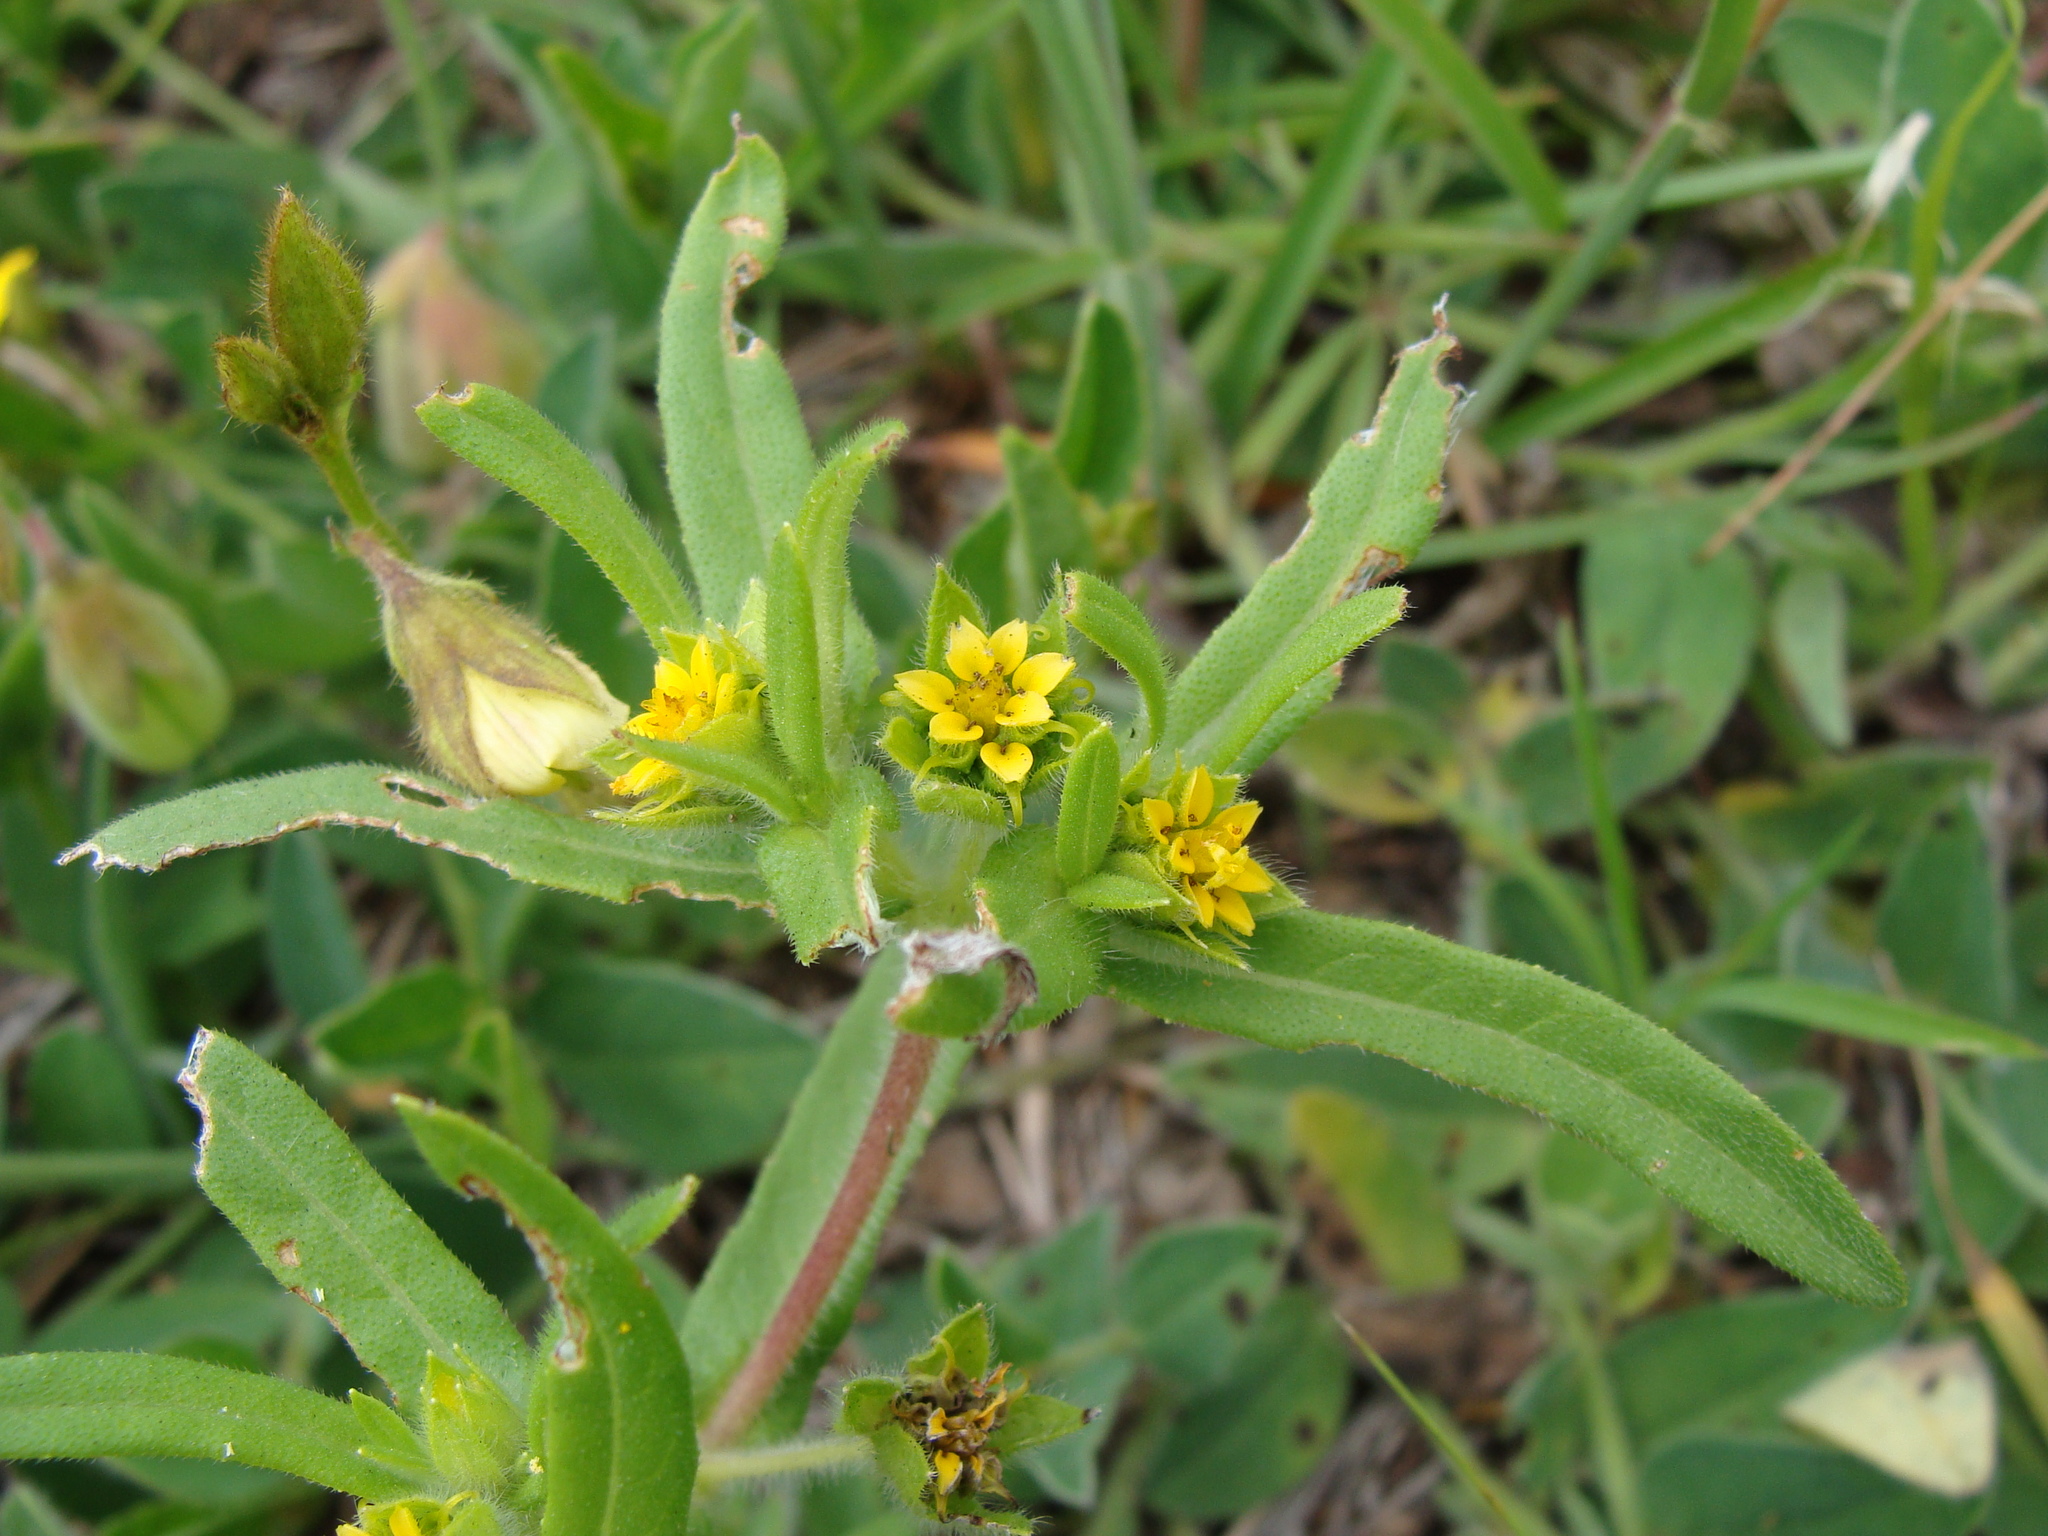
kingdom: Plantae
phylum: Tracheophyta
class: Magnoliopsida
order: Asterales
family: Asteraceae
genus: Melampodium
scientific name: Melampodium sericeum
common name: Rough blackfoot
